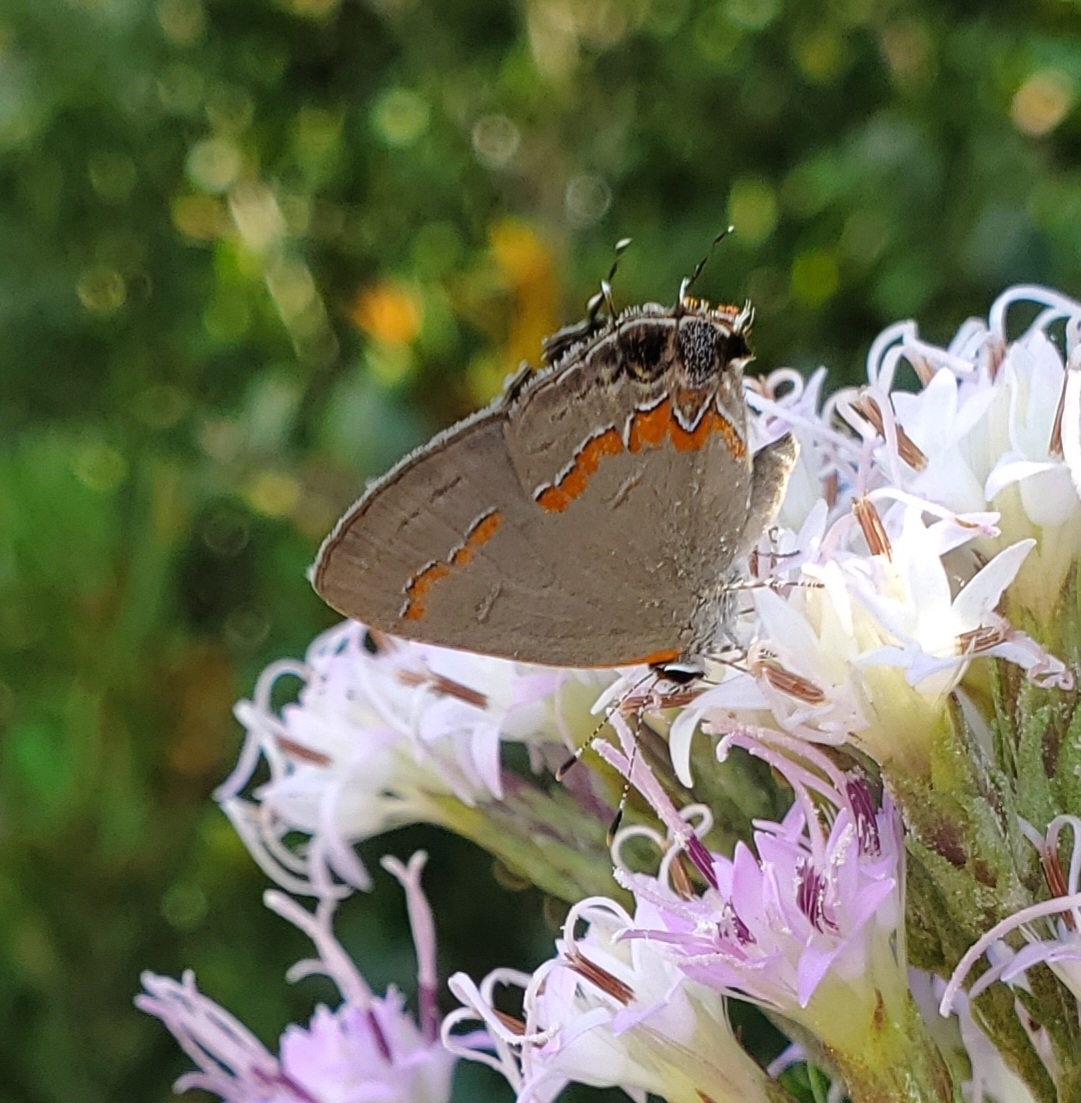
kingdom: Animalia
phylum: Arthropoda
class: Insecta
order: Lepidoptera
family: Lycaenidae
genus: Calycopis
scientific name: Calycopis cecrops
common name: Red-banded hairstreak
